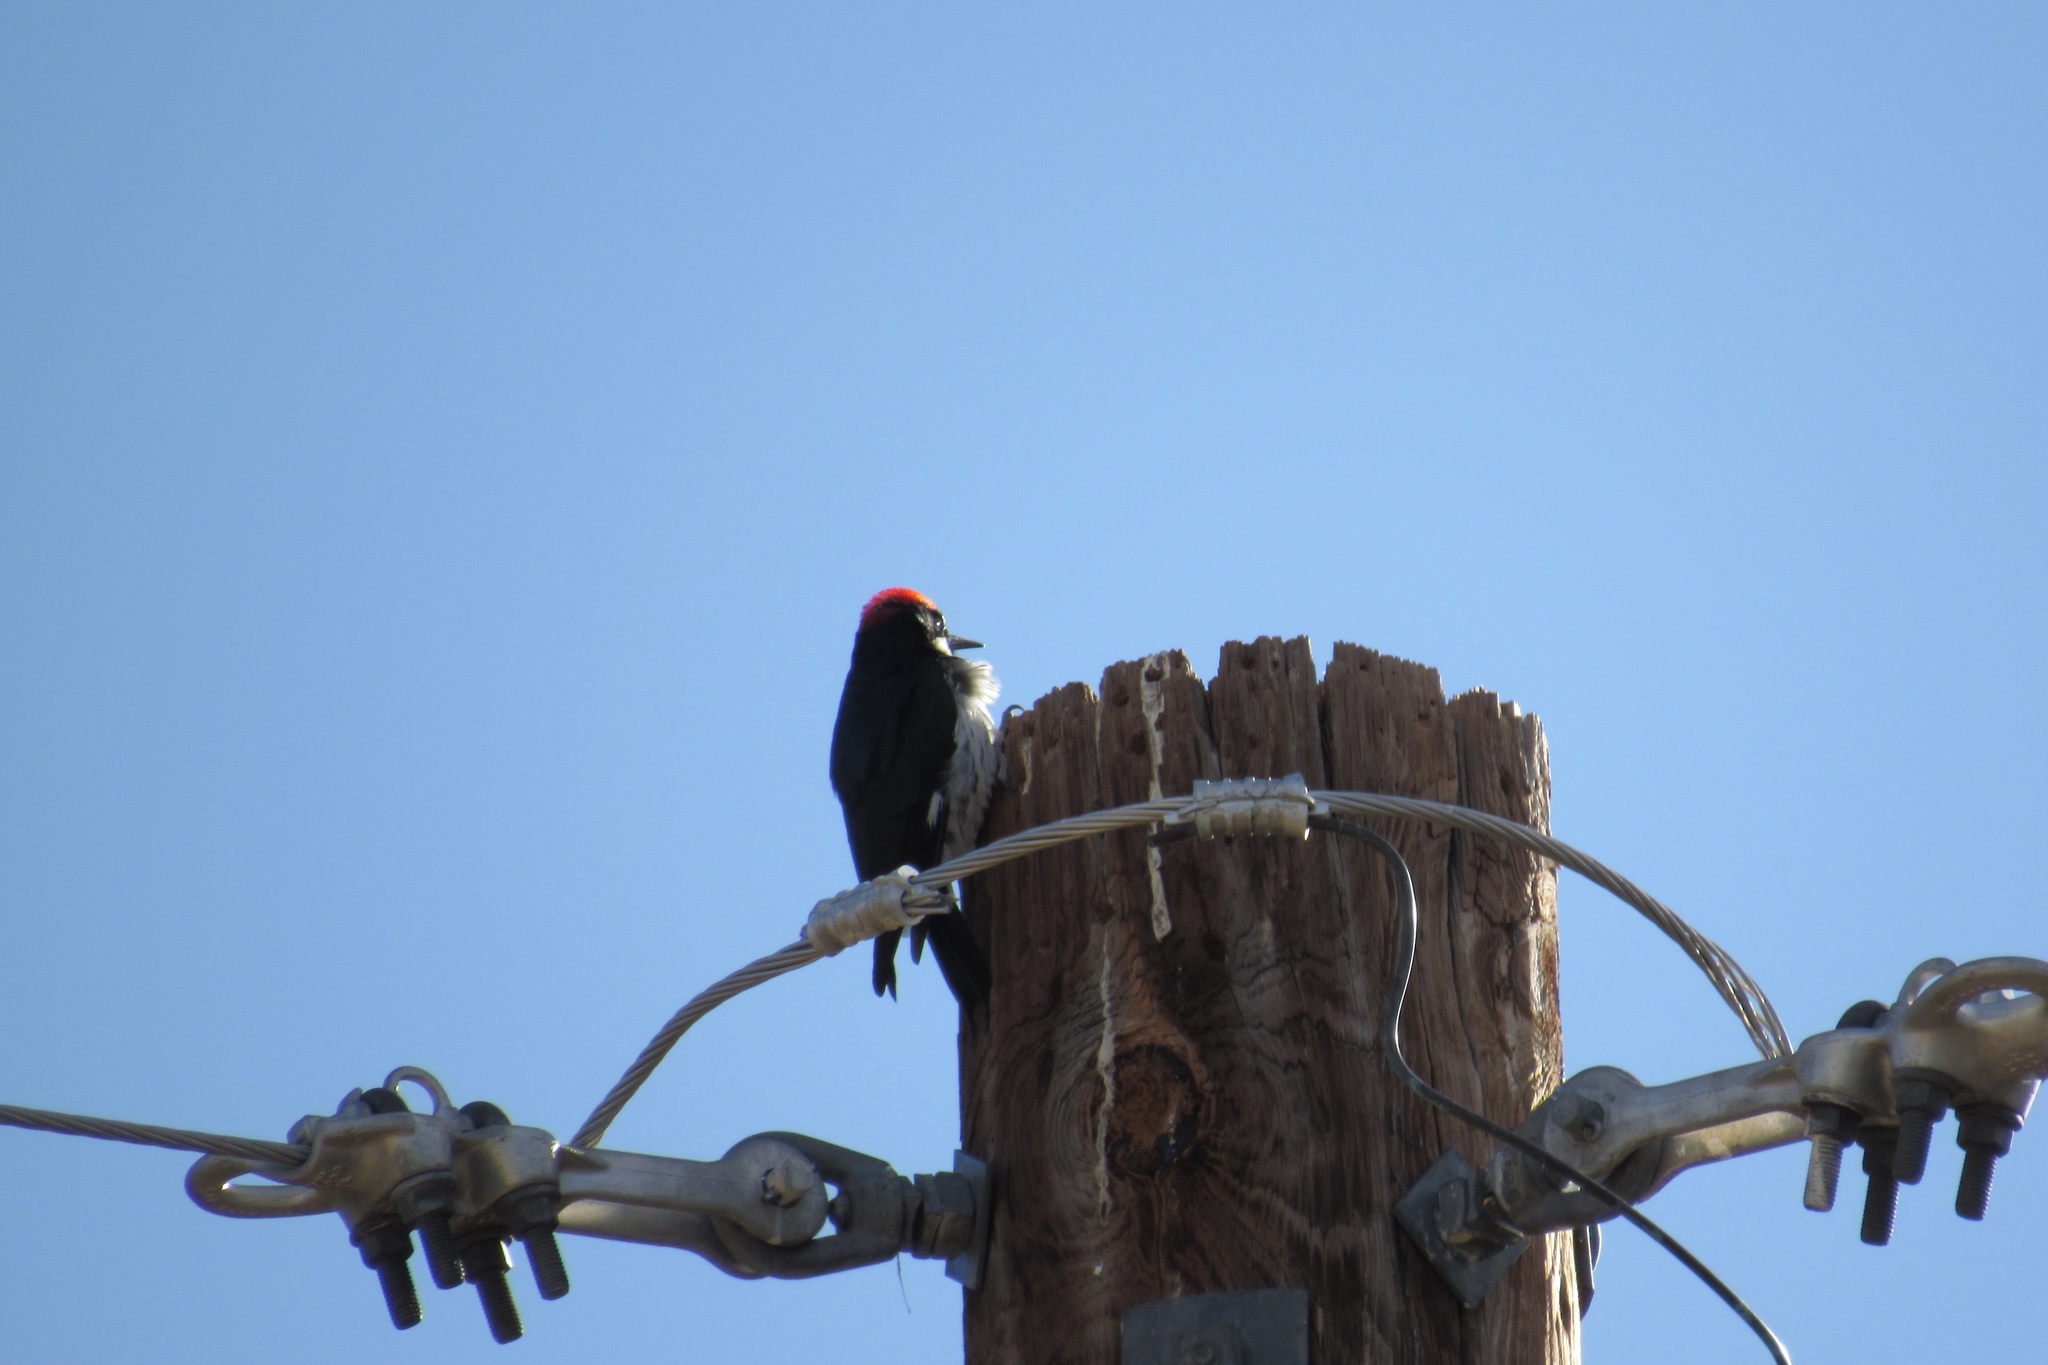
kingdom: Animalia
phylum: Chordata
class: Aves
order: Piciformes
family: Picidae
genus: Melanerpes
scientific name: Melanerpes formicivorus
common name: Acorn woodpecker
